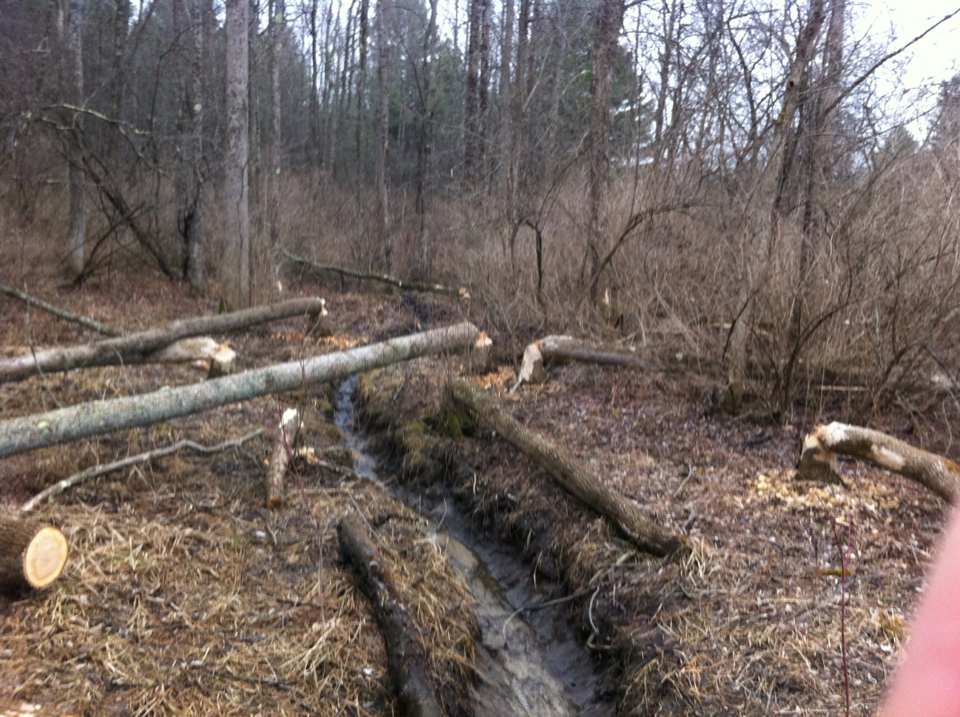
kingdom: Animalia
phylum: Chordata
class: Mammalia
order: Rodentia
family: Castoridae
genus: Castor
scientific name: Castor canadensis
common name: American beaver
